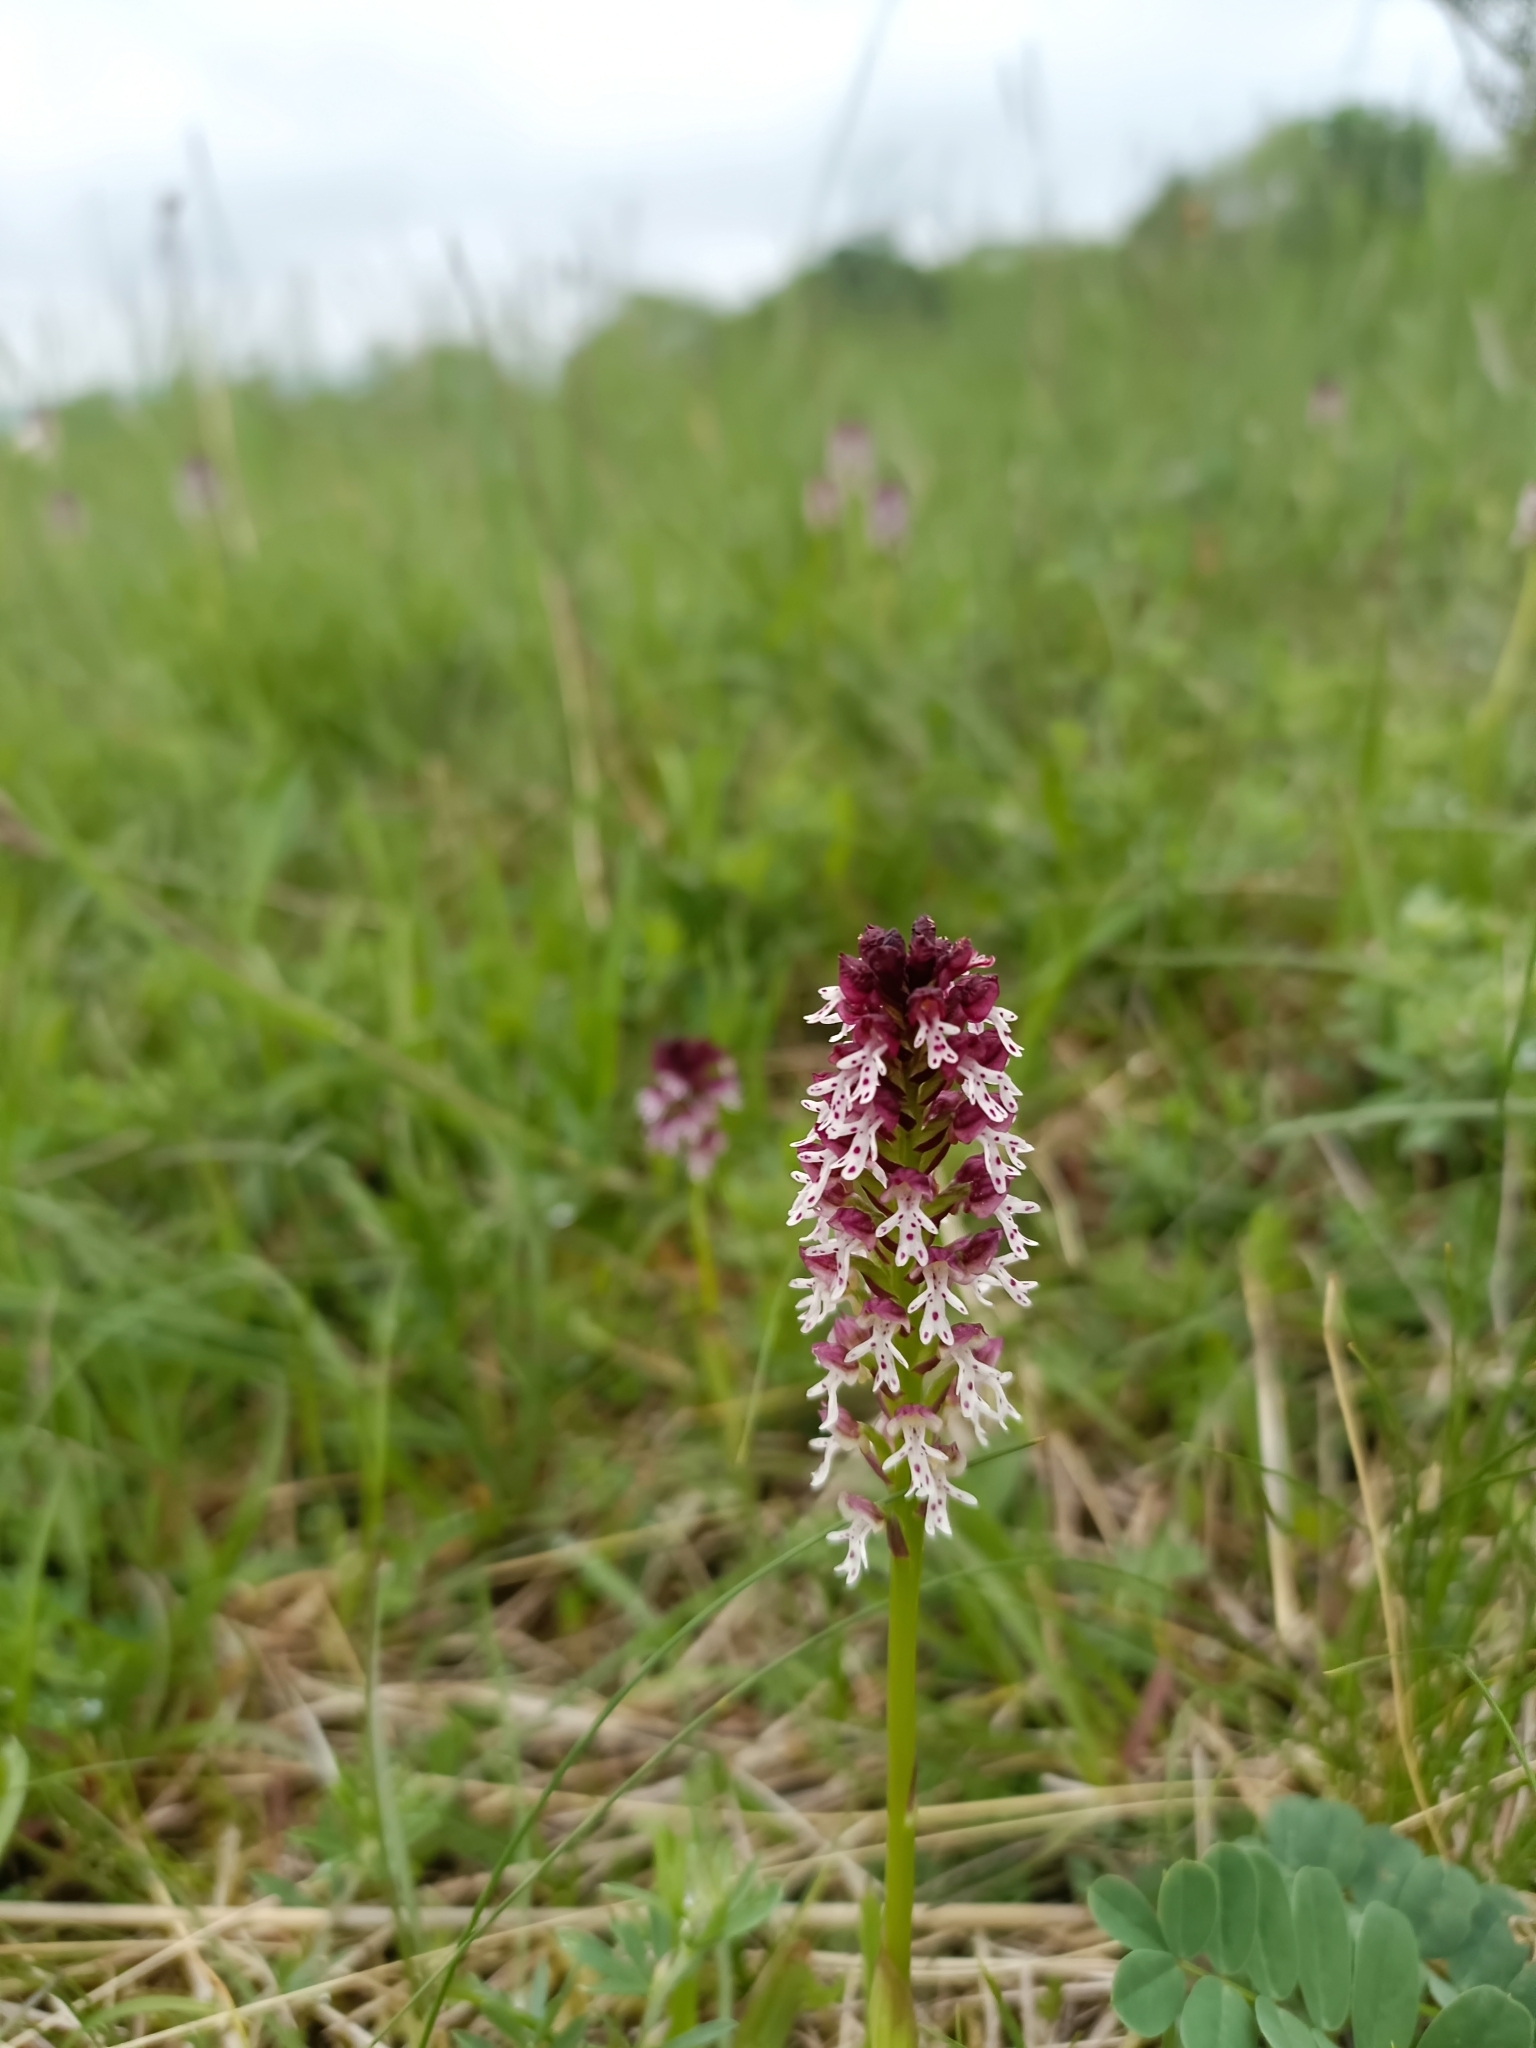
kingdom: Plantae
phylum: Tracheophyta
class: Liliopsida
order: Asparagales
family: Orchidaceae
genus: Neotinea
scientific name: Neotinea ustulata
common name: Burnt orchid
